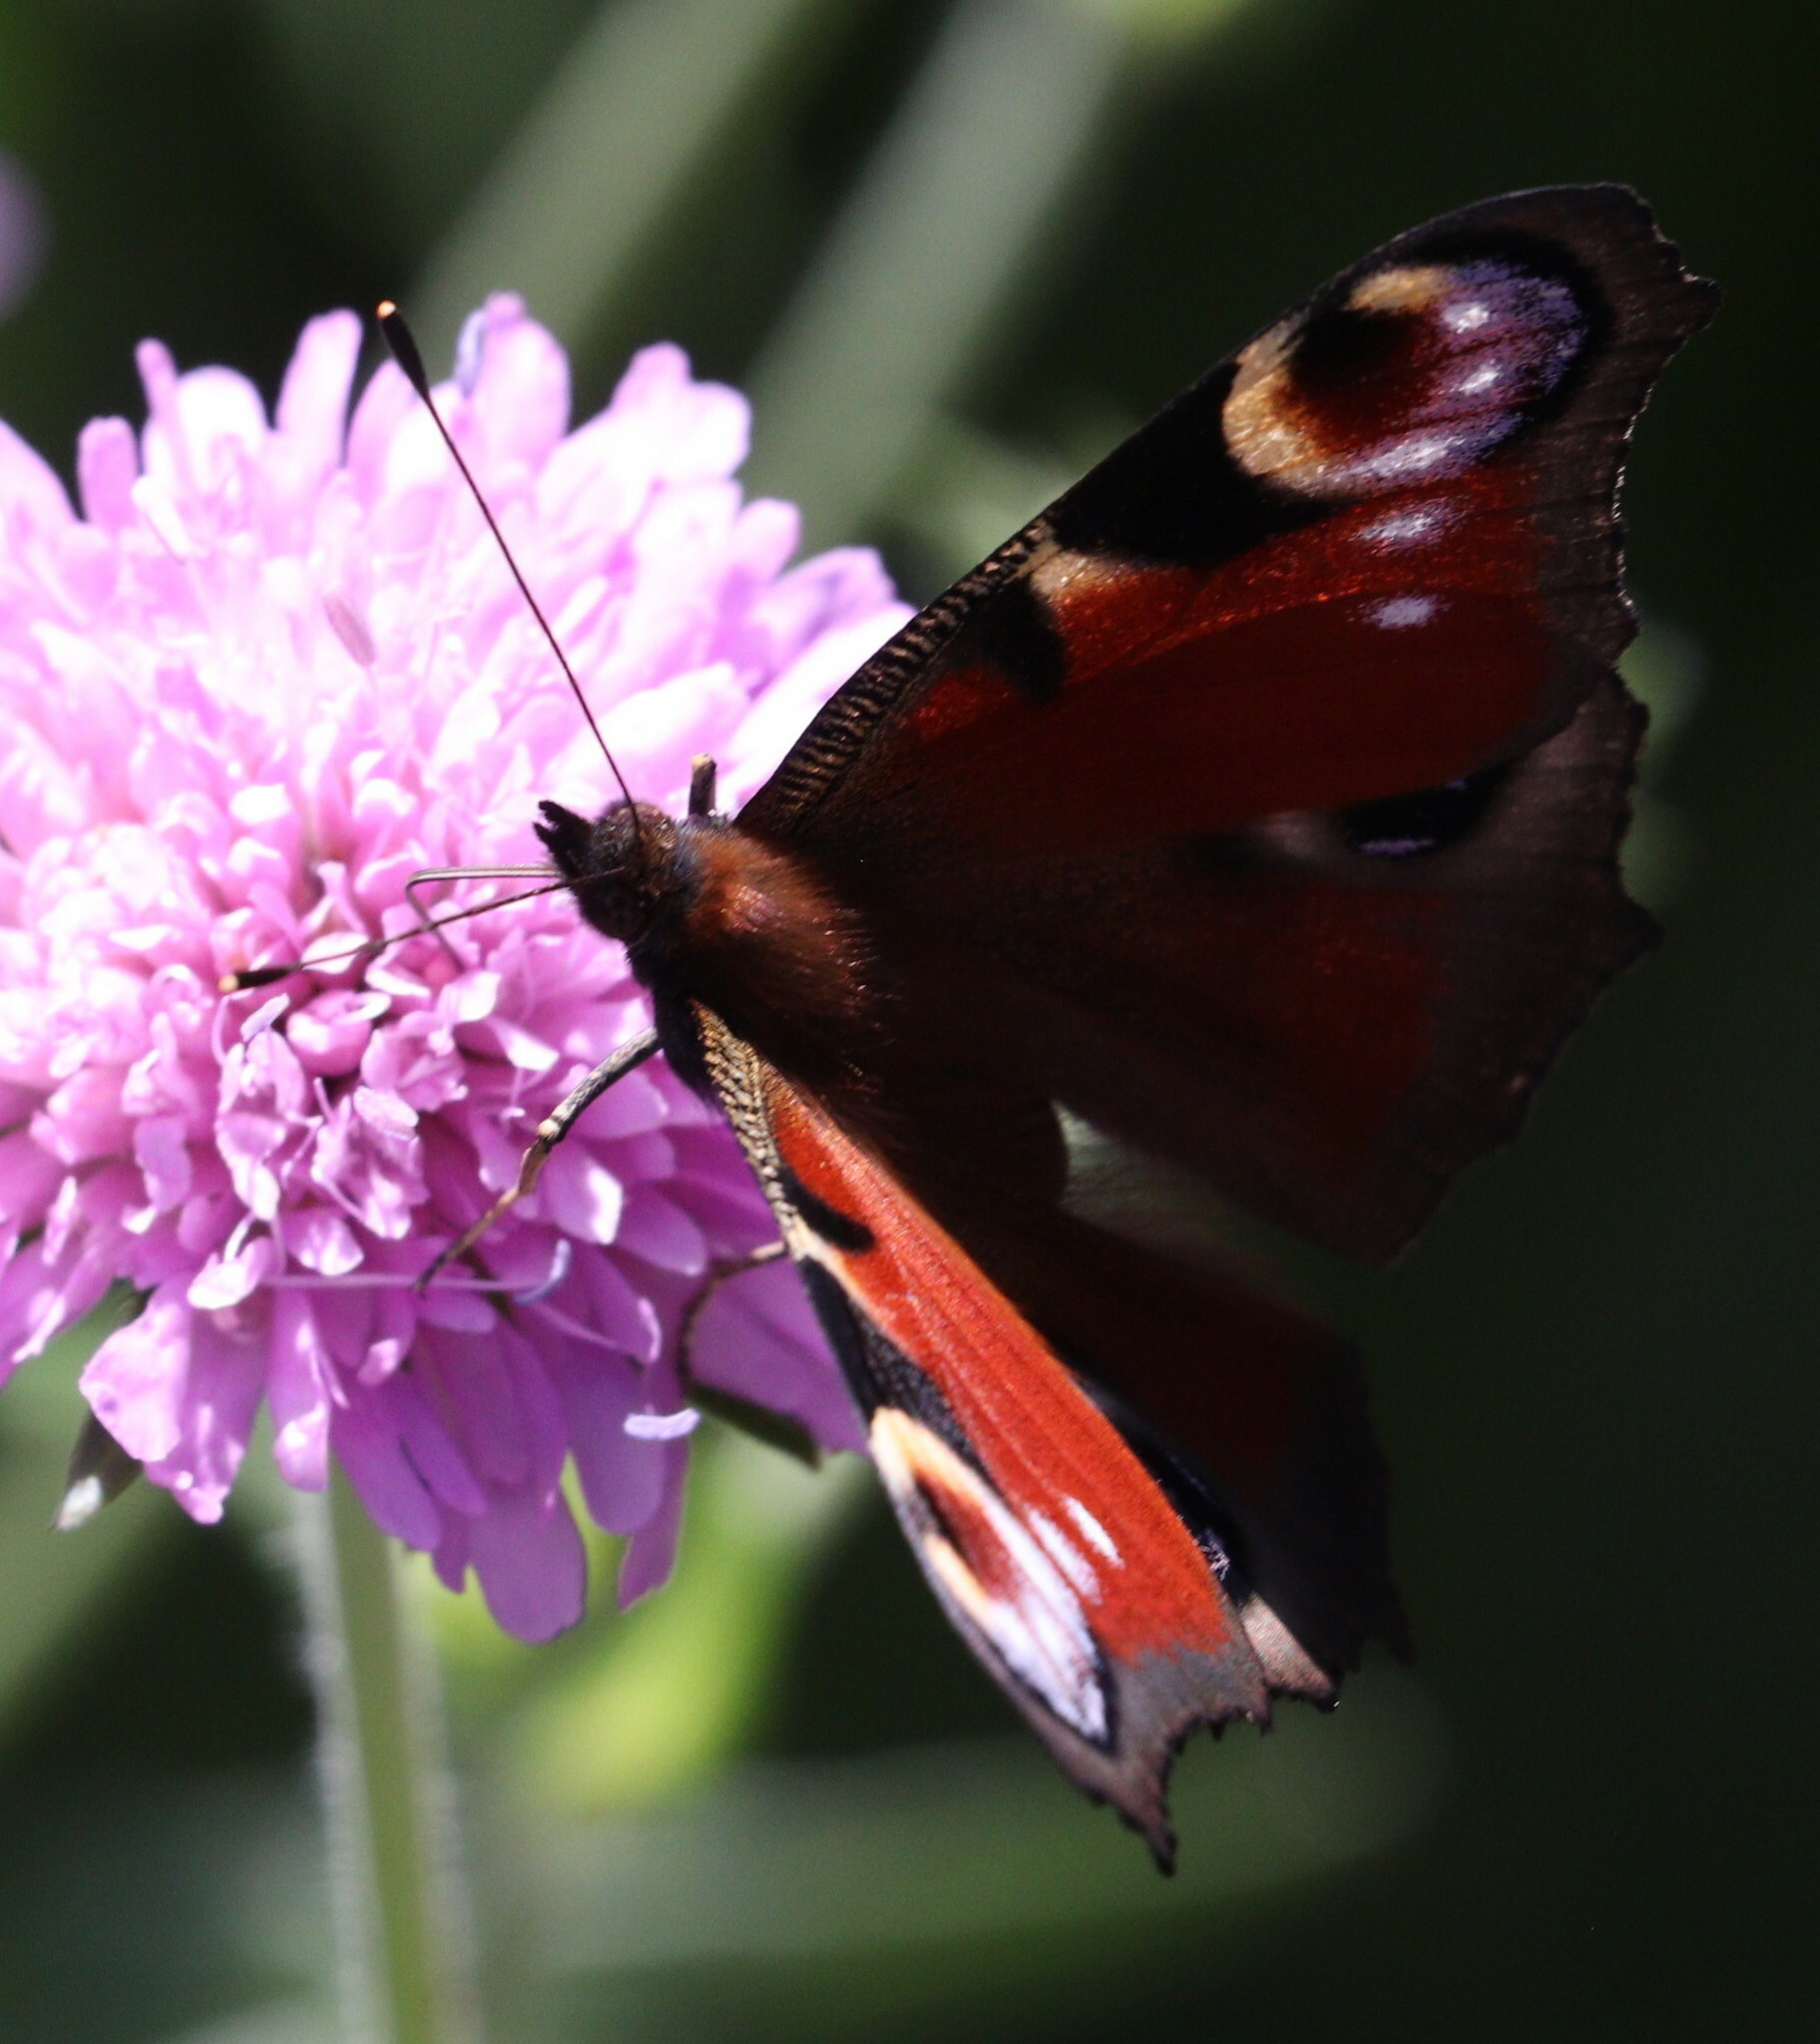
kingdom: Animalia
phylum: Arthropoda
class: Insecta
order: Lepidoptera
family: Nymphalidae
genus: Aglais
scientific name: Aglais io
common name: Peacock
